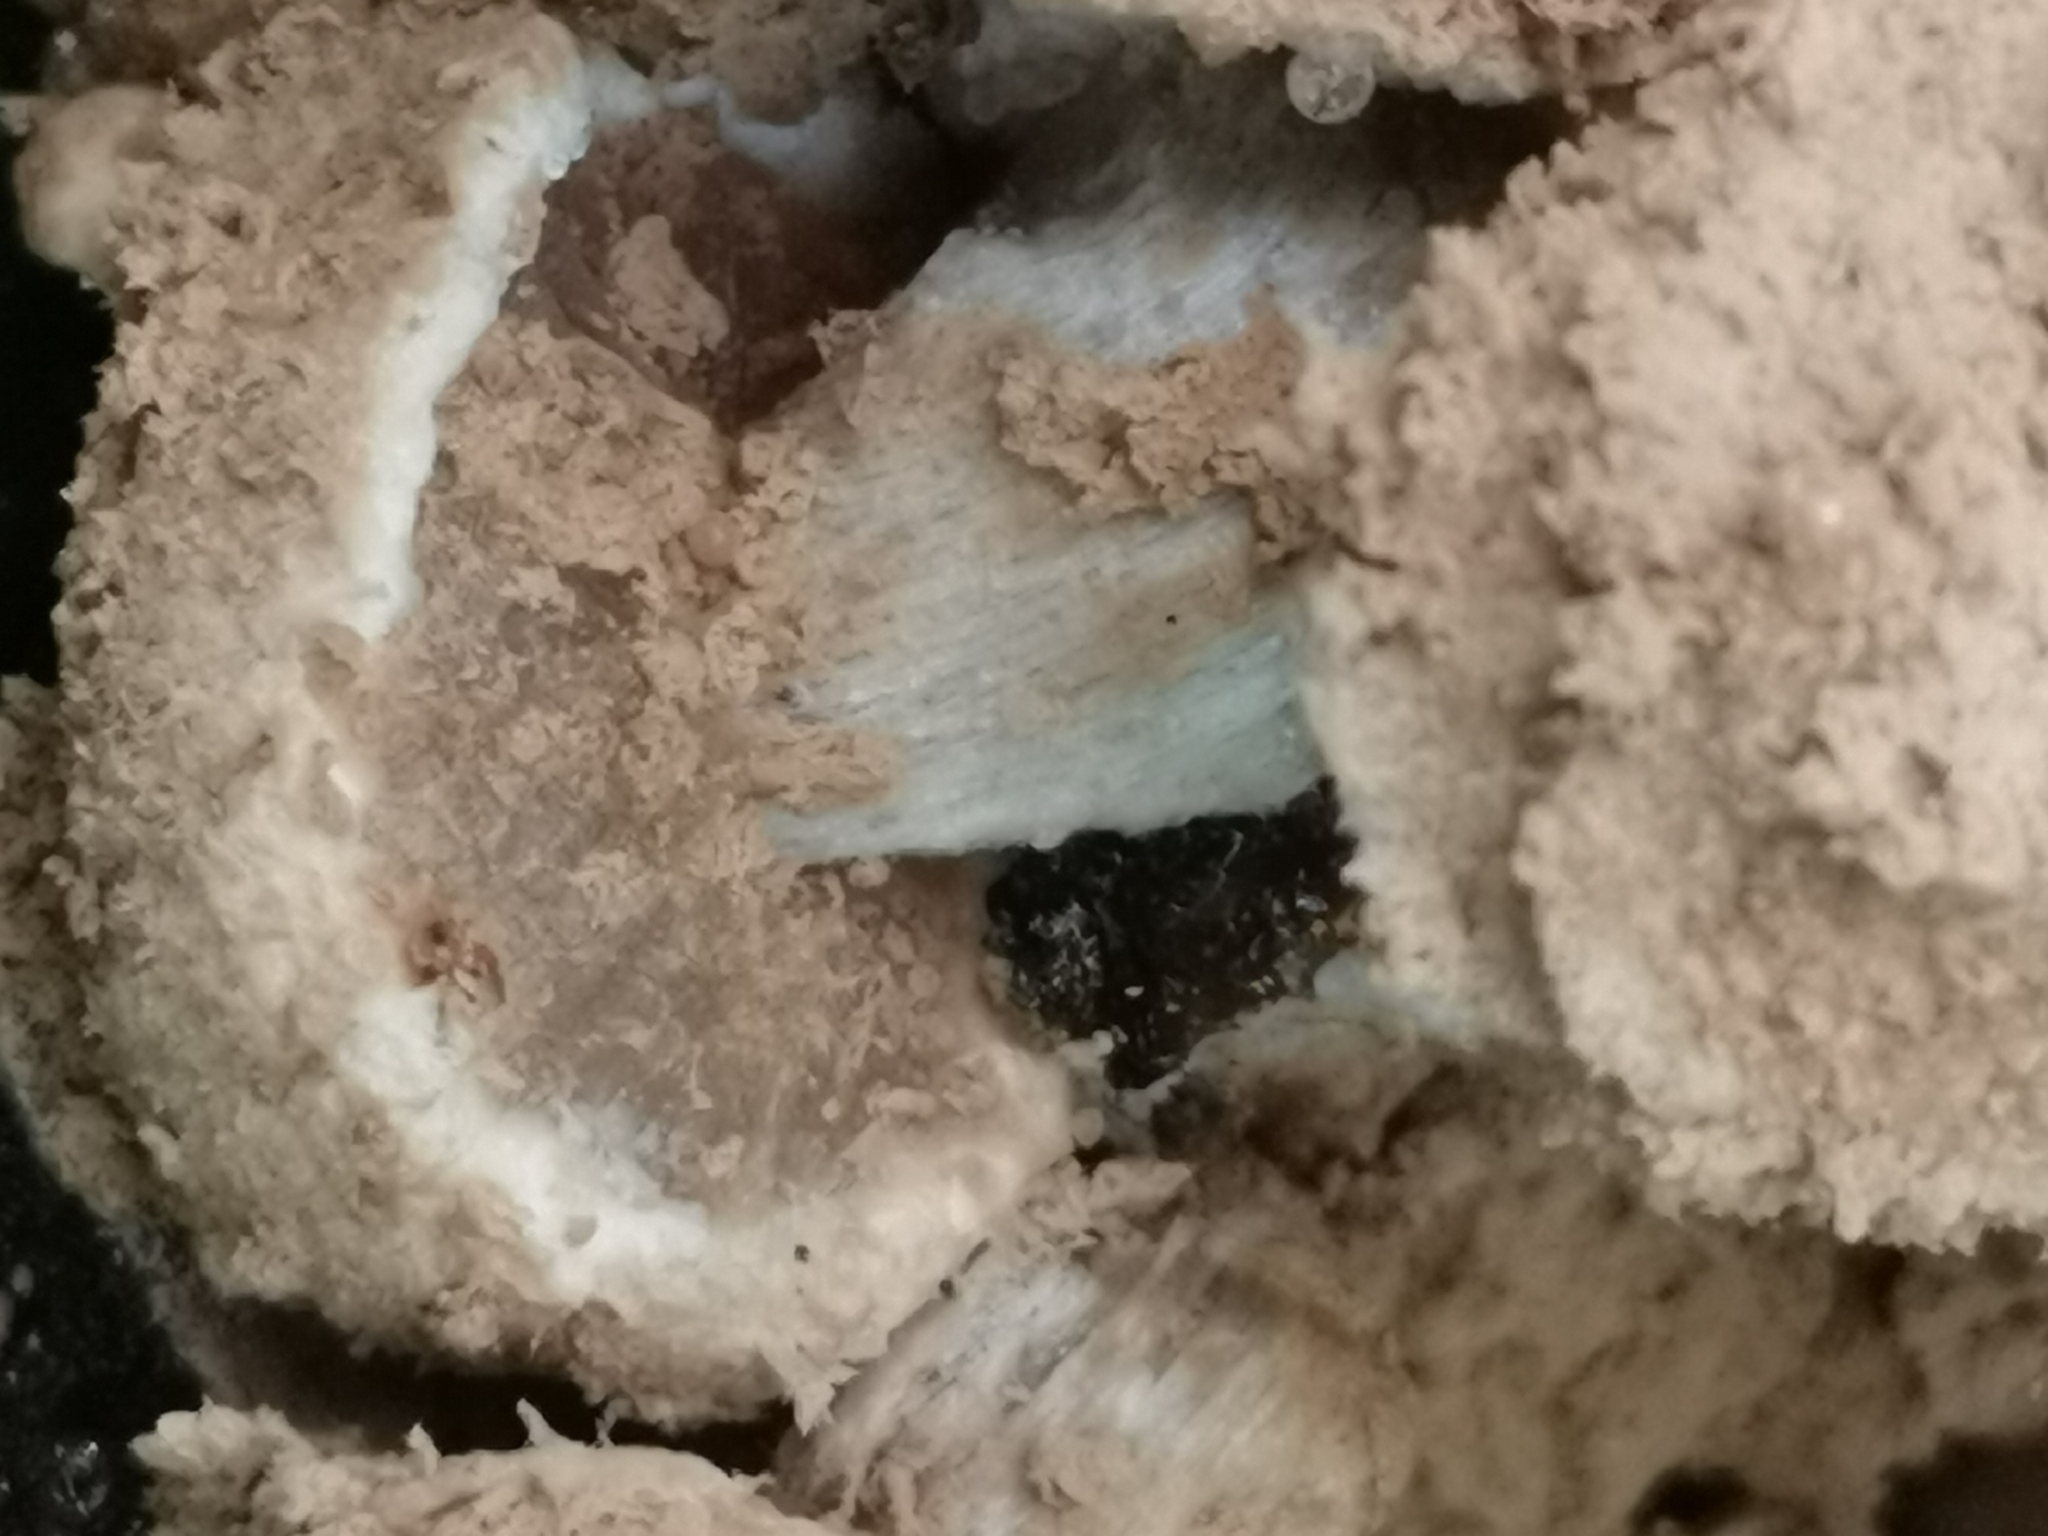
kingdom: Fungi
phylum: Basidiomycota
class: Agaricomycetes
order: Agaricales
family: Lyophyllaceae
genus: Asterophora
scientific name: Asterophora lycoperdoides
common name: Pick-a-back toadstool
